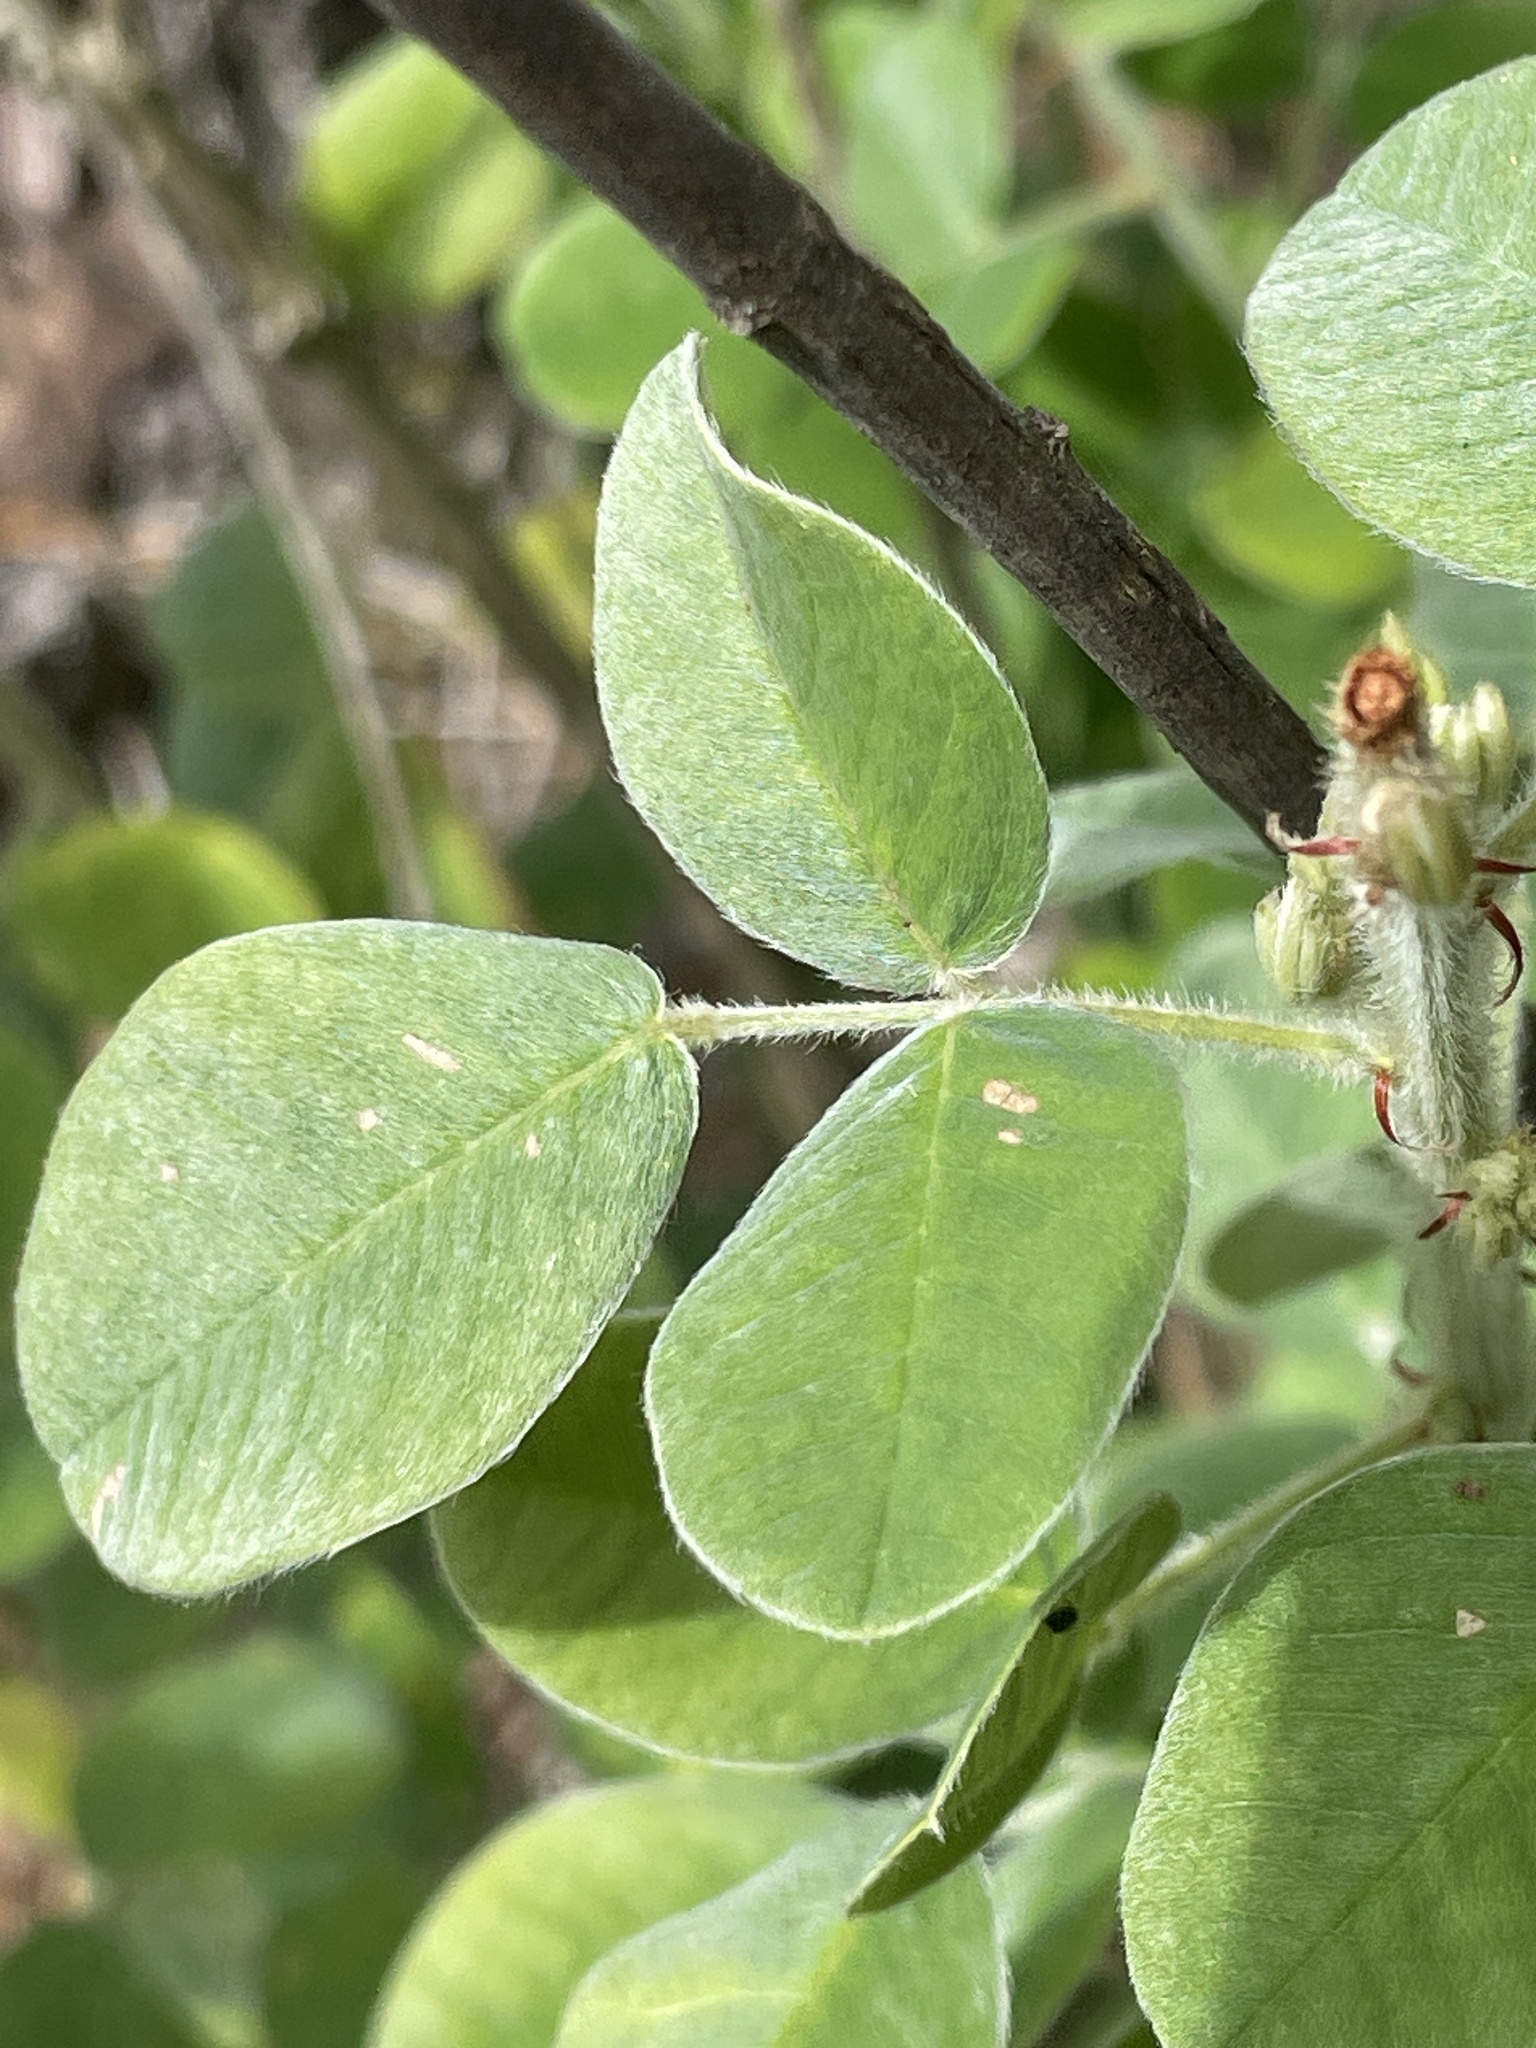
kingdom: Plantae
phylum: Tracheophyta
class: Magnoliopsida
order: Fabales
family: Fabaceae
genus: Lespedeza
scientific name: Lespedeza hirta
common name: Hairy lespedeza
